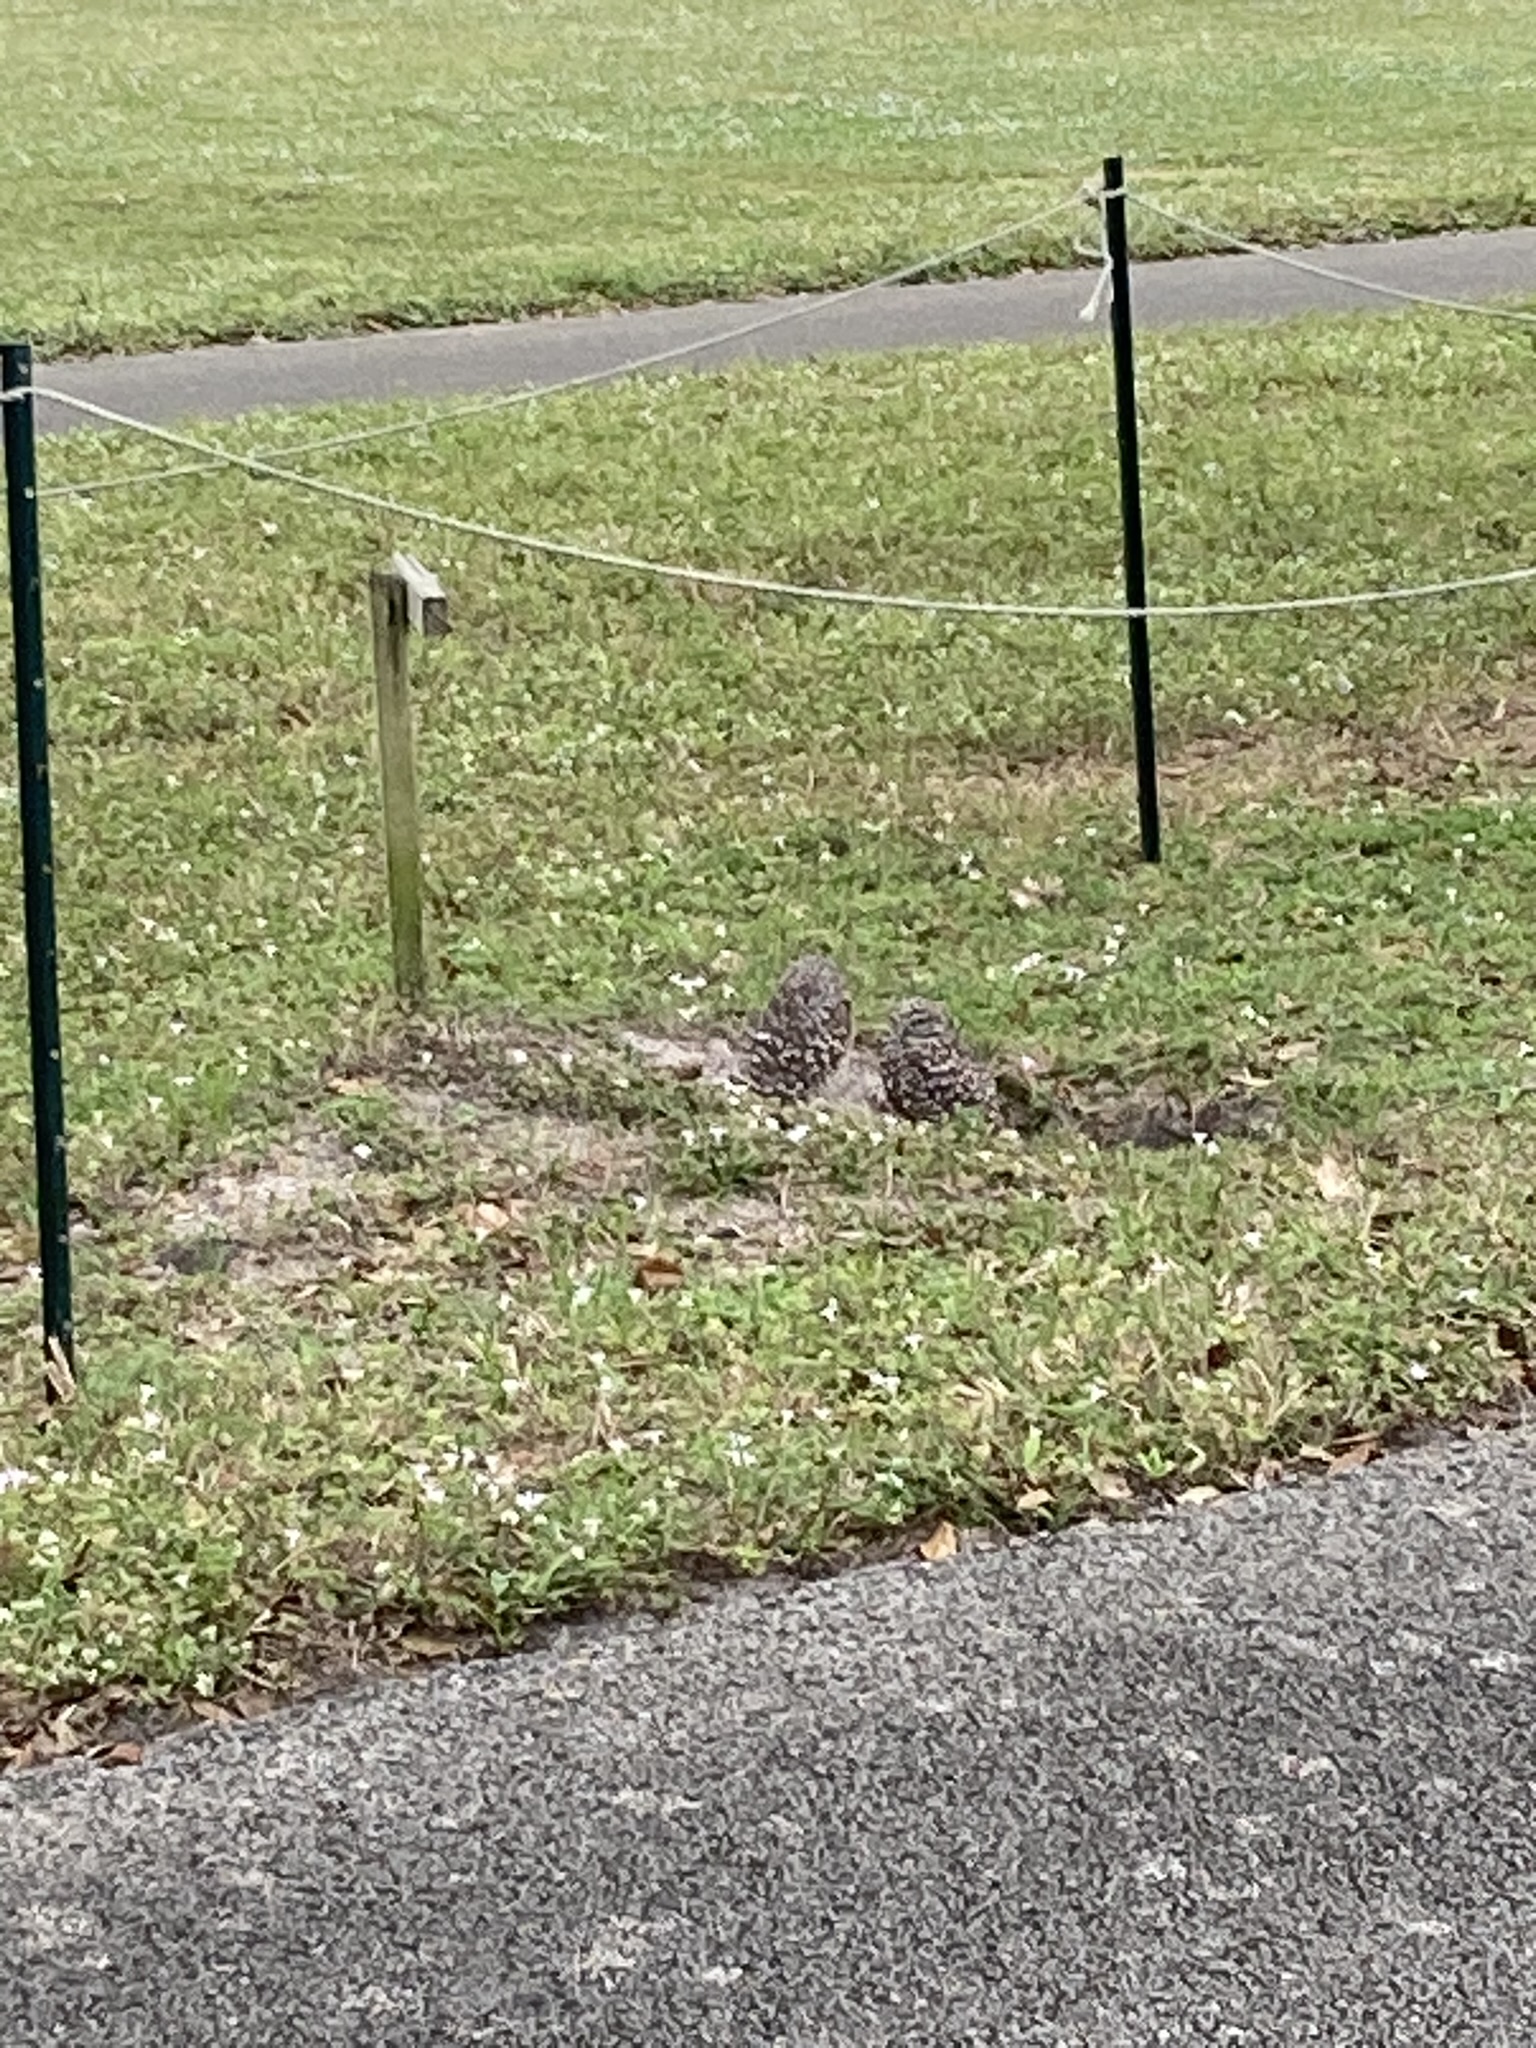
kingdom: Animalia
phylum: Chordata
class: Aves
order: Strigiformes
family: Strigidae
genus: Athene
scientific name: Athene cunicularia
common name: Burrowing owl
